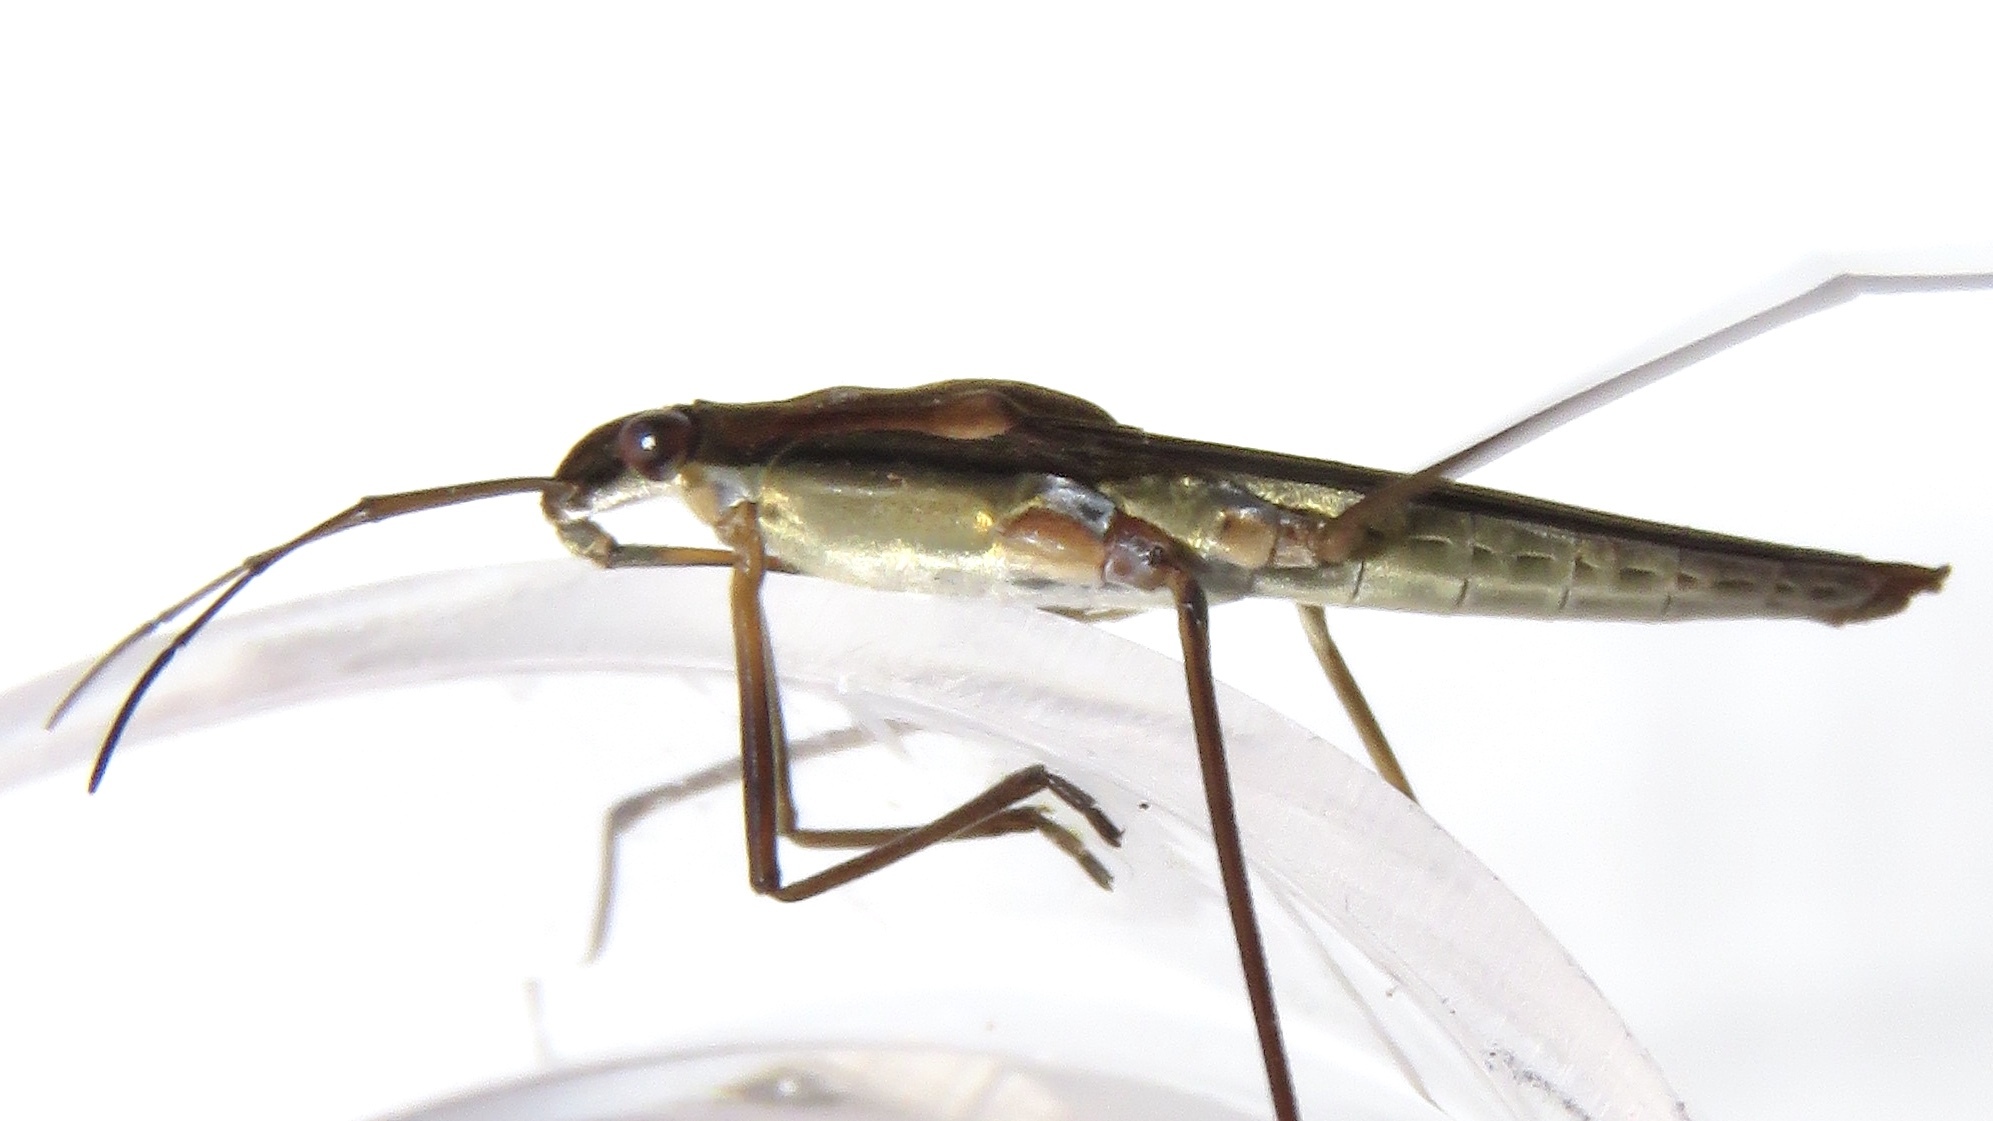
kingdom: Animalia
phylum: Arthropoda
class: Insecta
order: Hemiptera
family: Gerridae
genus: Limnoporus
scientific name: Limnoporus dissortis
